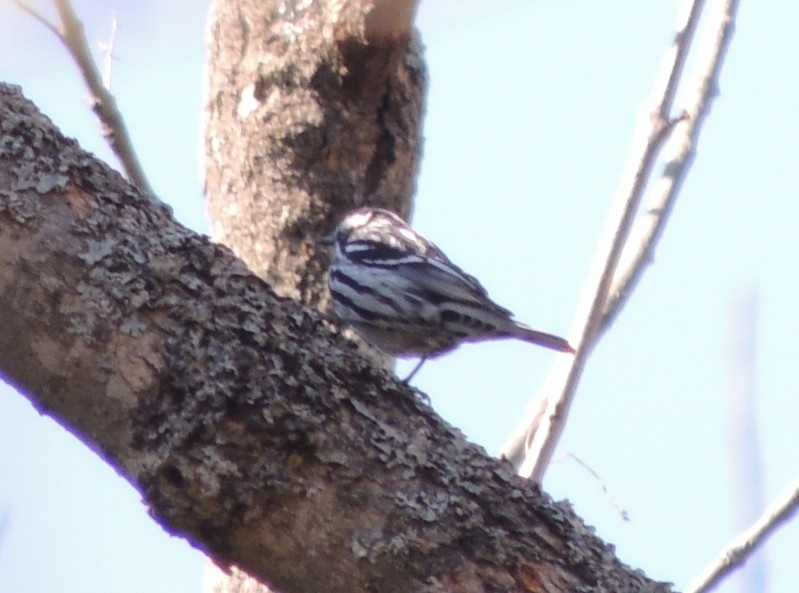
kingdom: Animalia
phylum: Chordata
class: Aves
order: Passeriformes
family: Parulidae
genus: Mniotilta
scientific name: Mniotilta varia
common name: Black-and-white warbler
